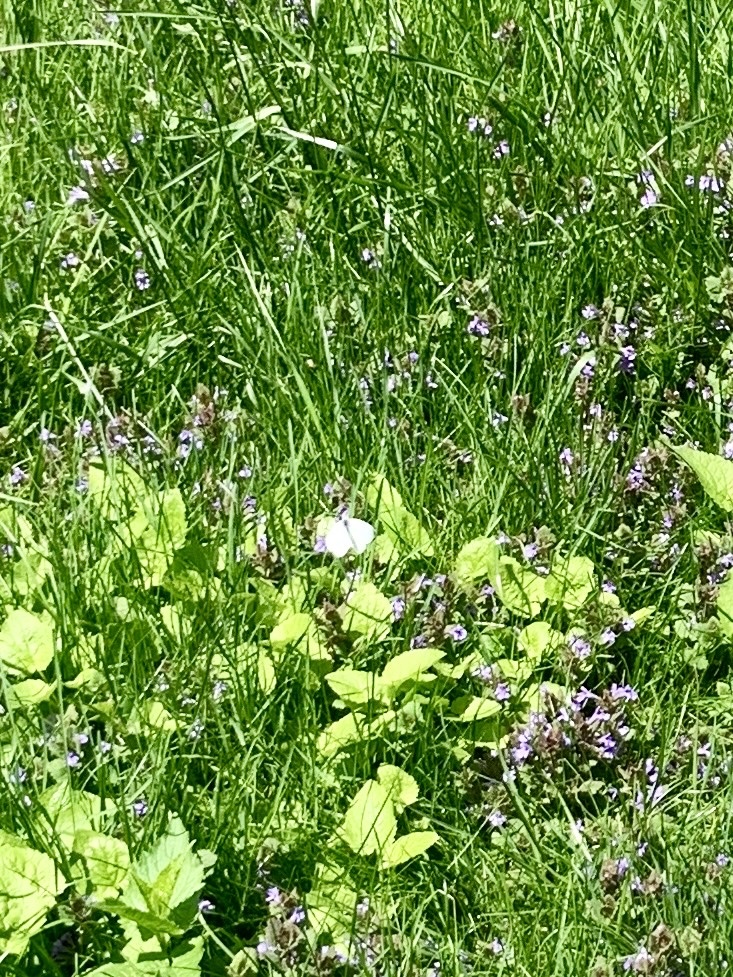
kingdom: Animalia
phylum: Arthropoda
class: Insecta
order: Lepidoptera
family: Pieridae
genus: Pieris
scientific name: Pieris rapae
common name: Small white
